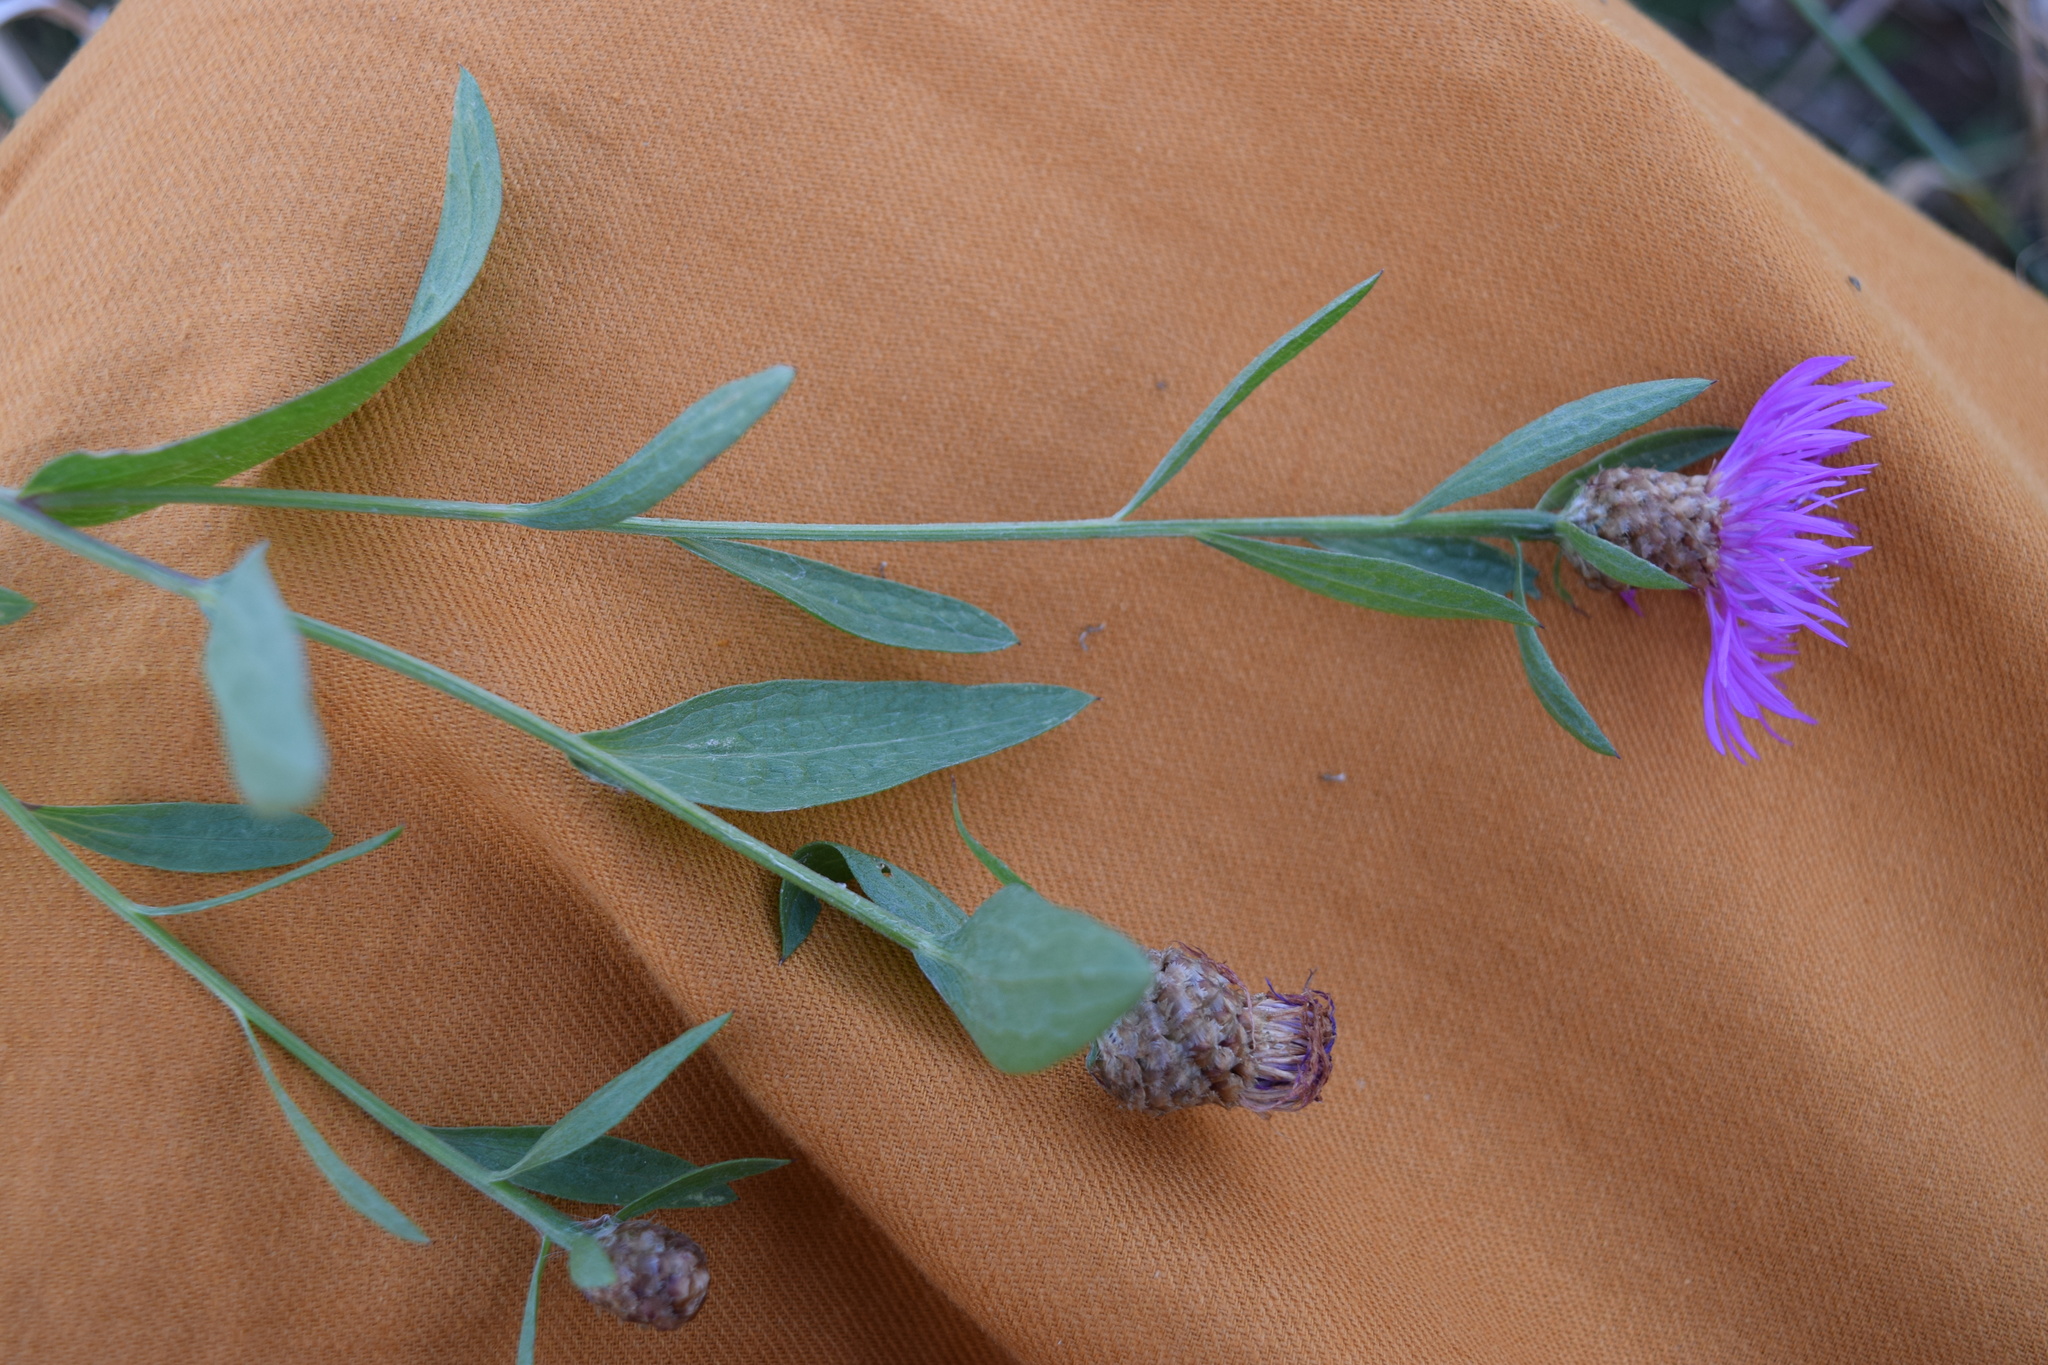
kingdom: Plantae
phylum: Tracheophyta
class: Magnoliopsida
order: Asterales
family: Asteraceae
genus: Centaurea
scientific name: Centaurea jacea
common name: Brown knapweed
